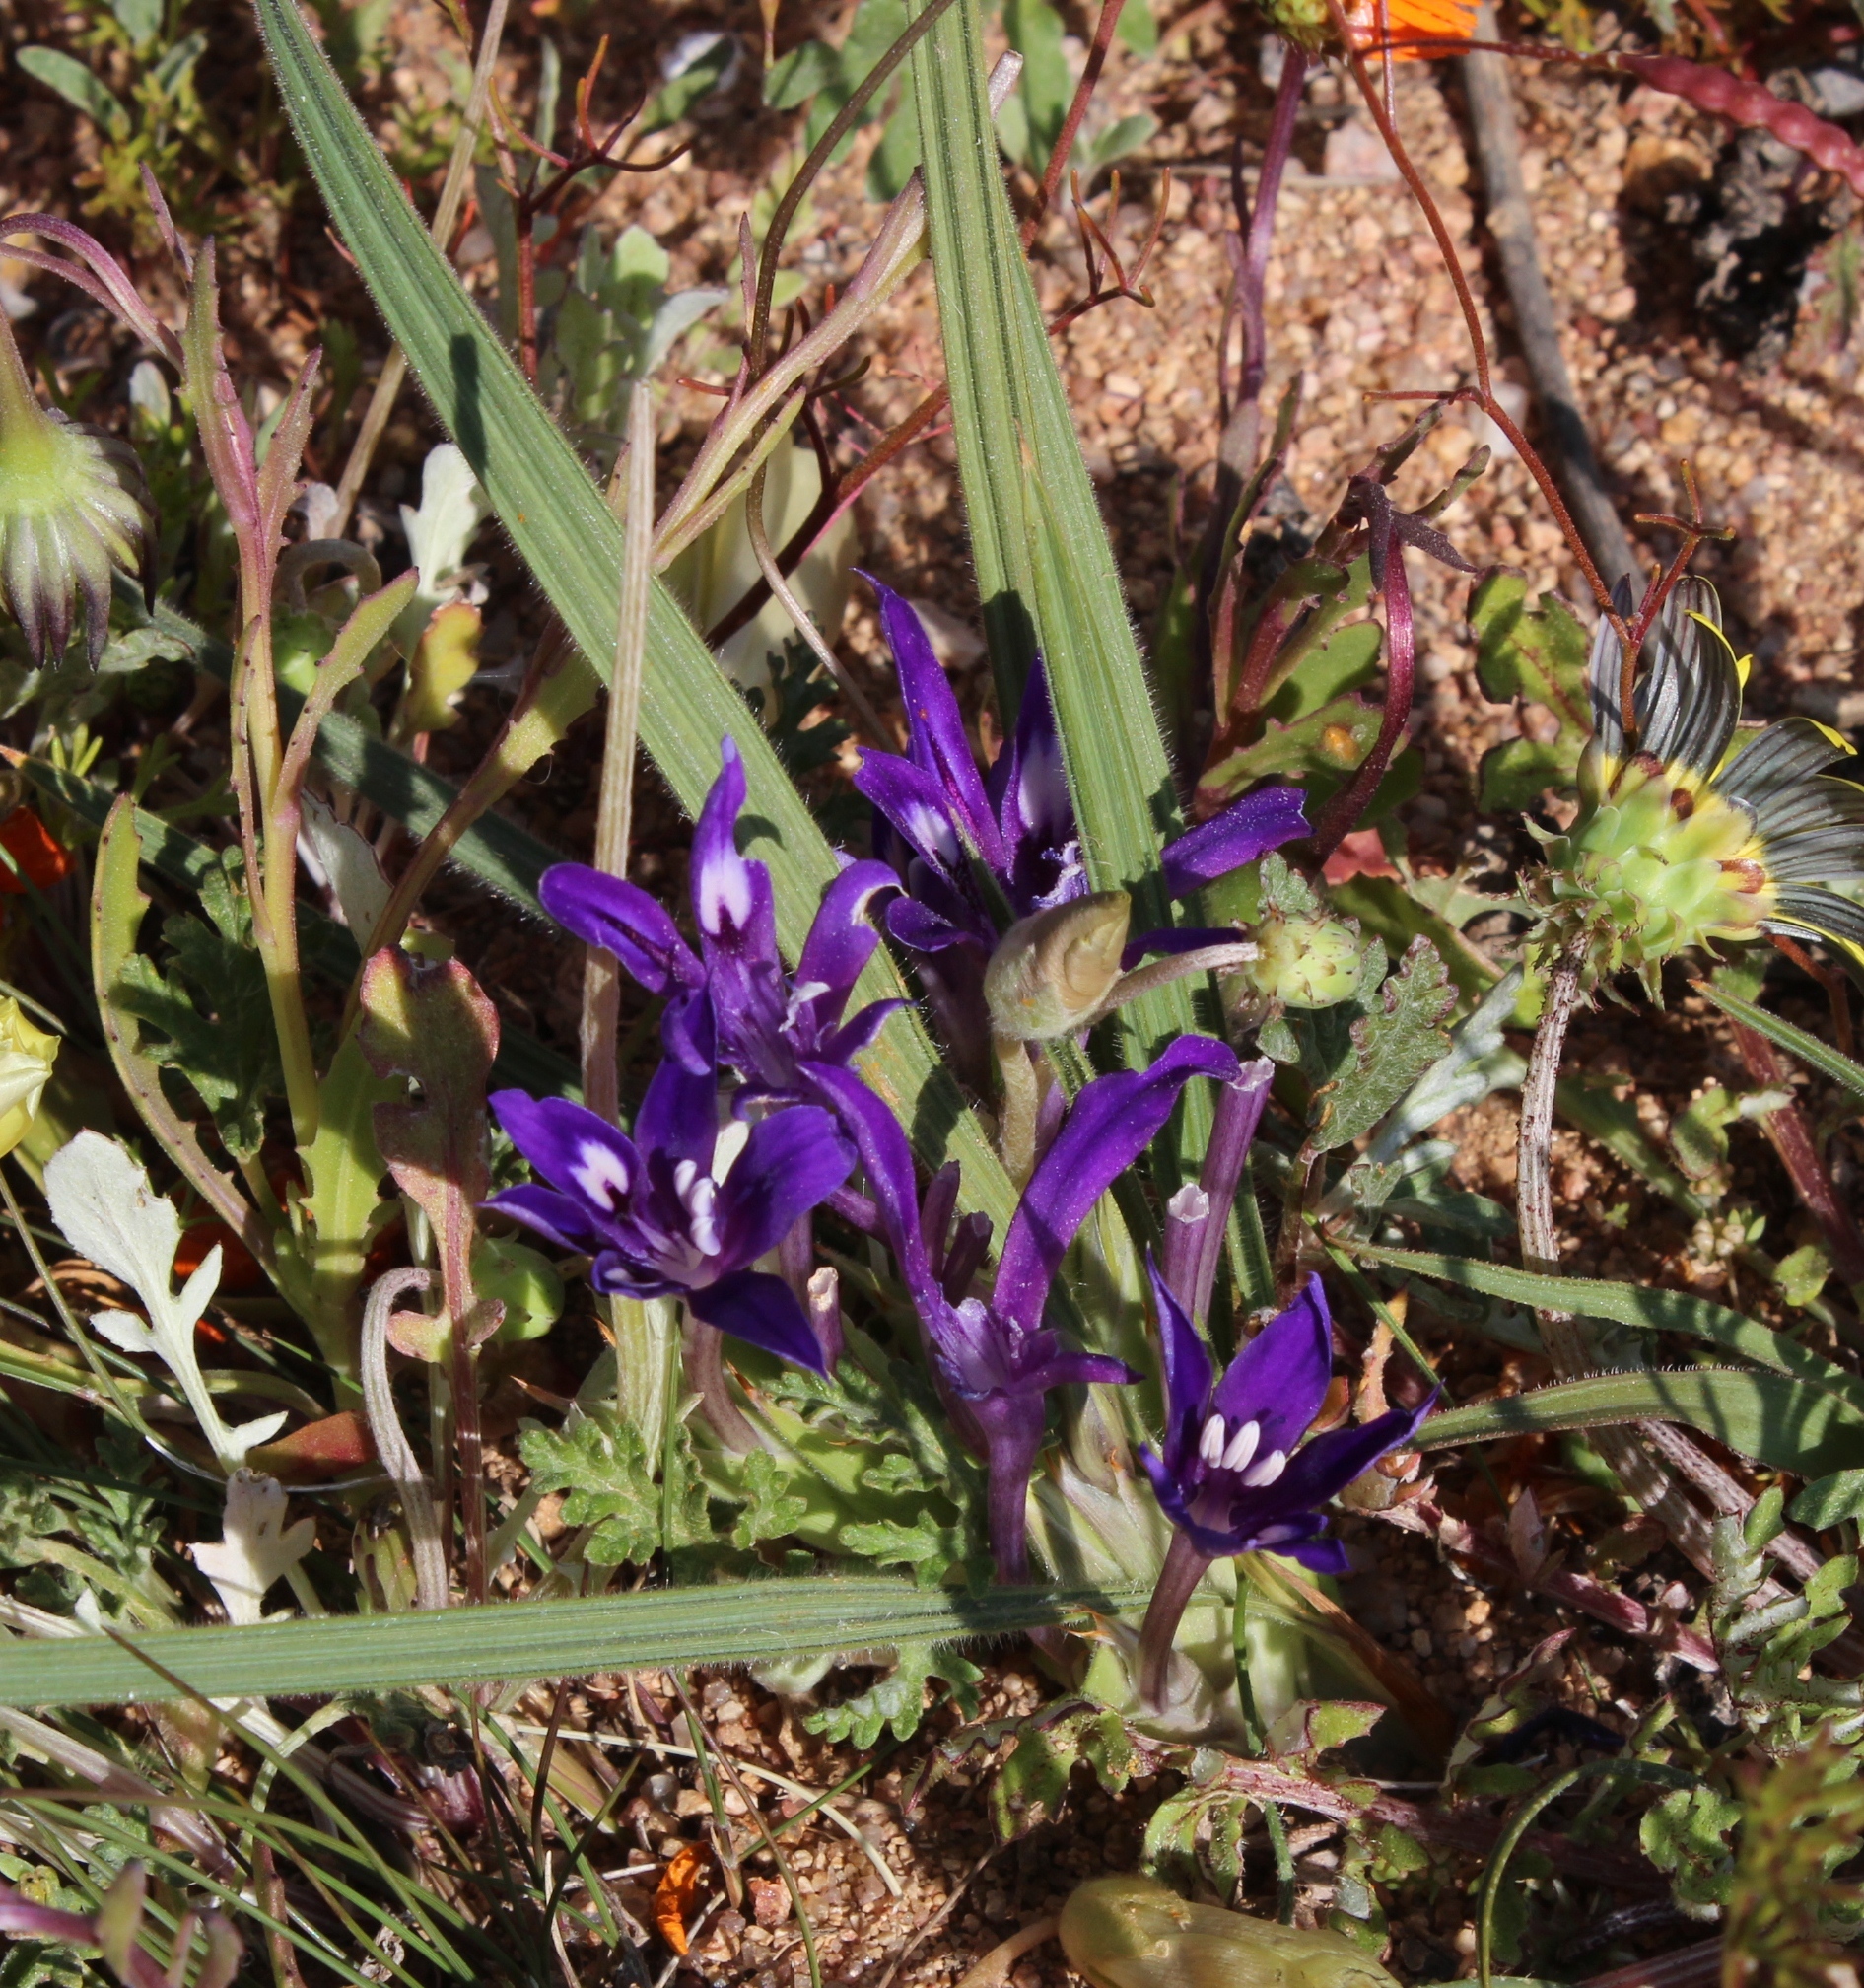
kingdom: Plantae
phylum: Tracheophyta
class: Liliopsida
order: Asparagales
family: Iridaceae
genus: Babiana
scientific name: Babiana curviscapa
